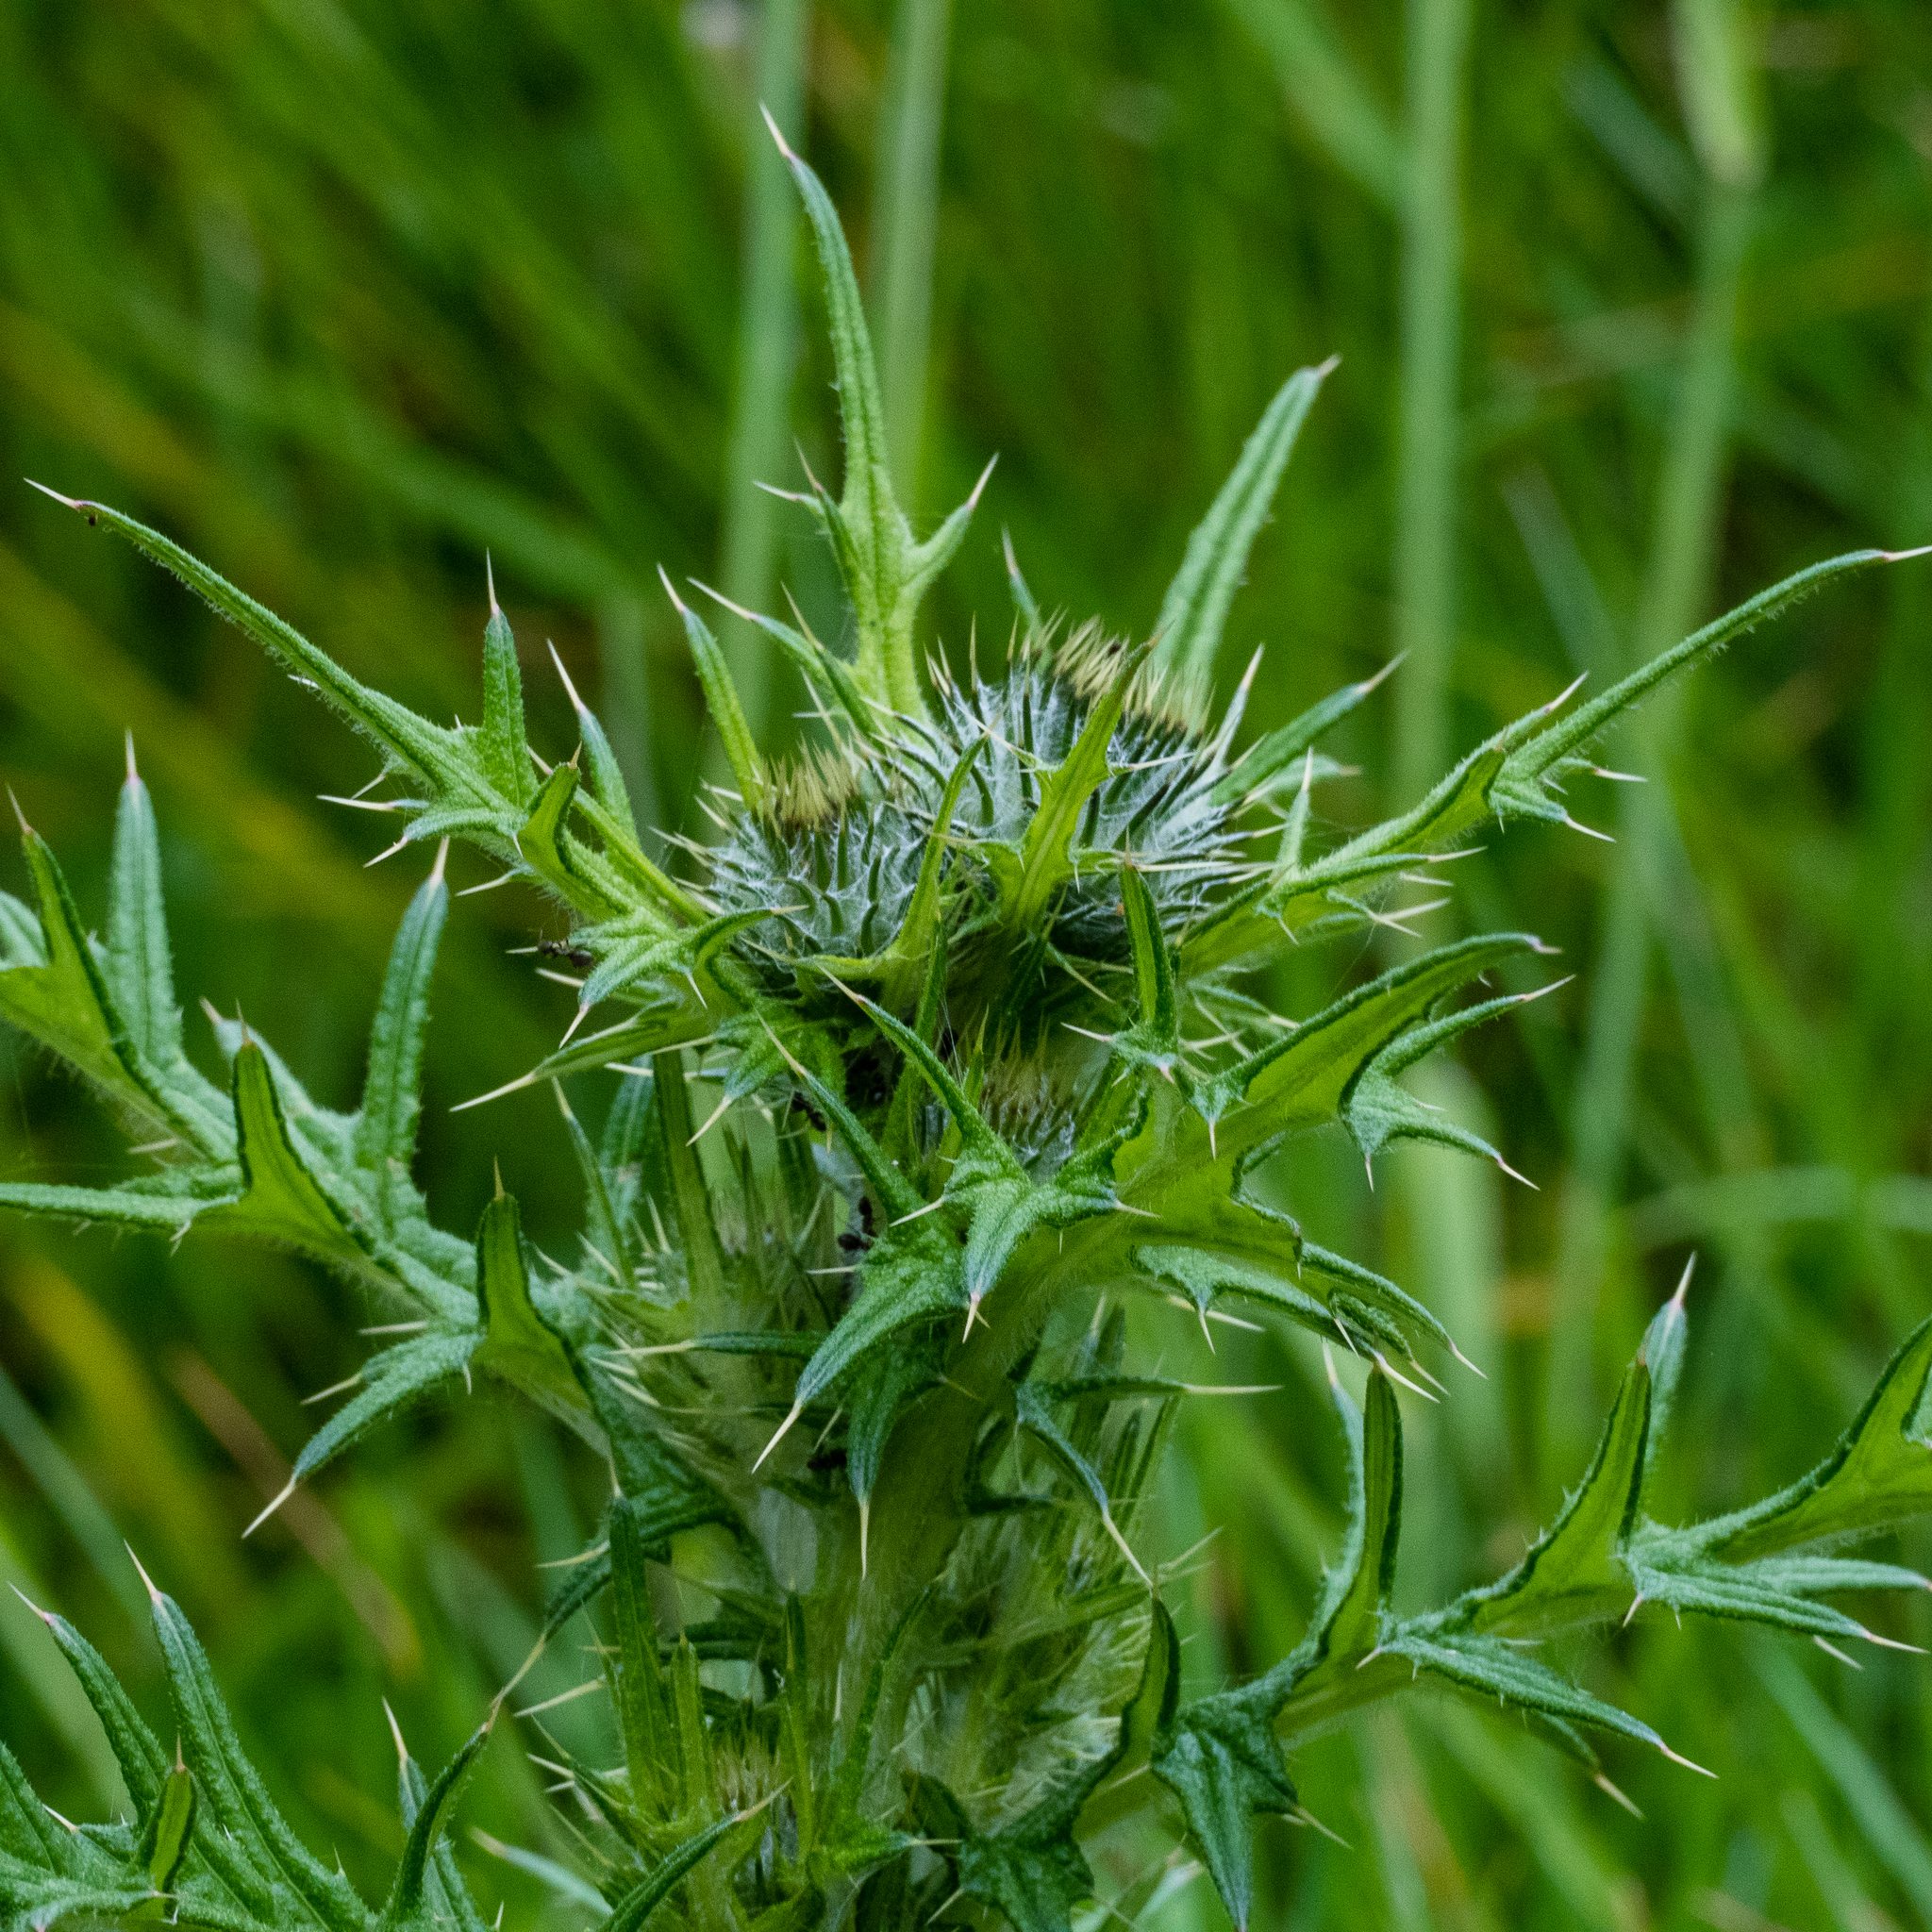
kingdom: Plantae
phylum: Tracheophyta
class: Magnoliopsida
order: Asterales
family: Asteraceae
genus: Cirsium
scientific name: Cirsium vulgare
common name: Bull thistle
